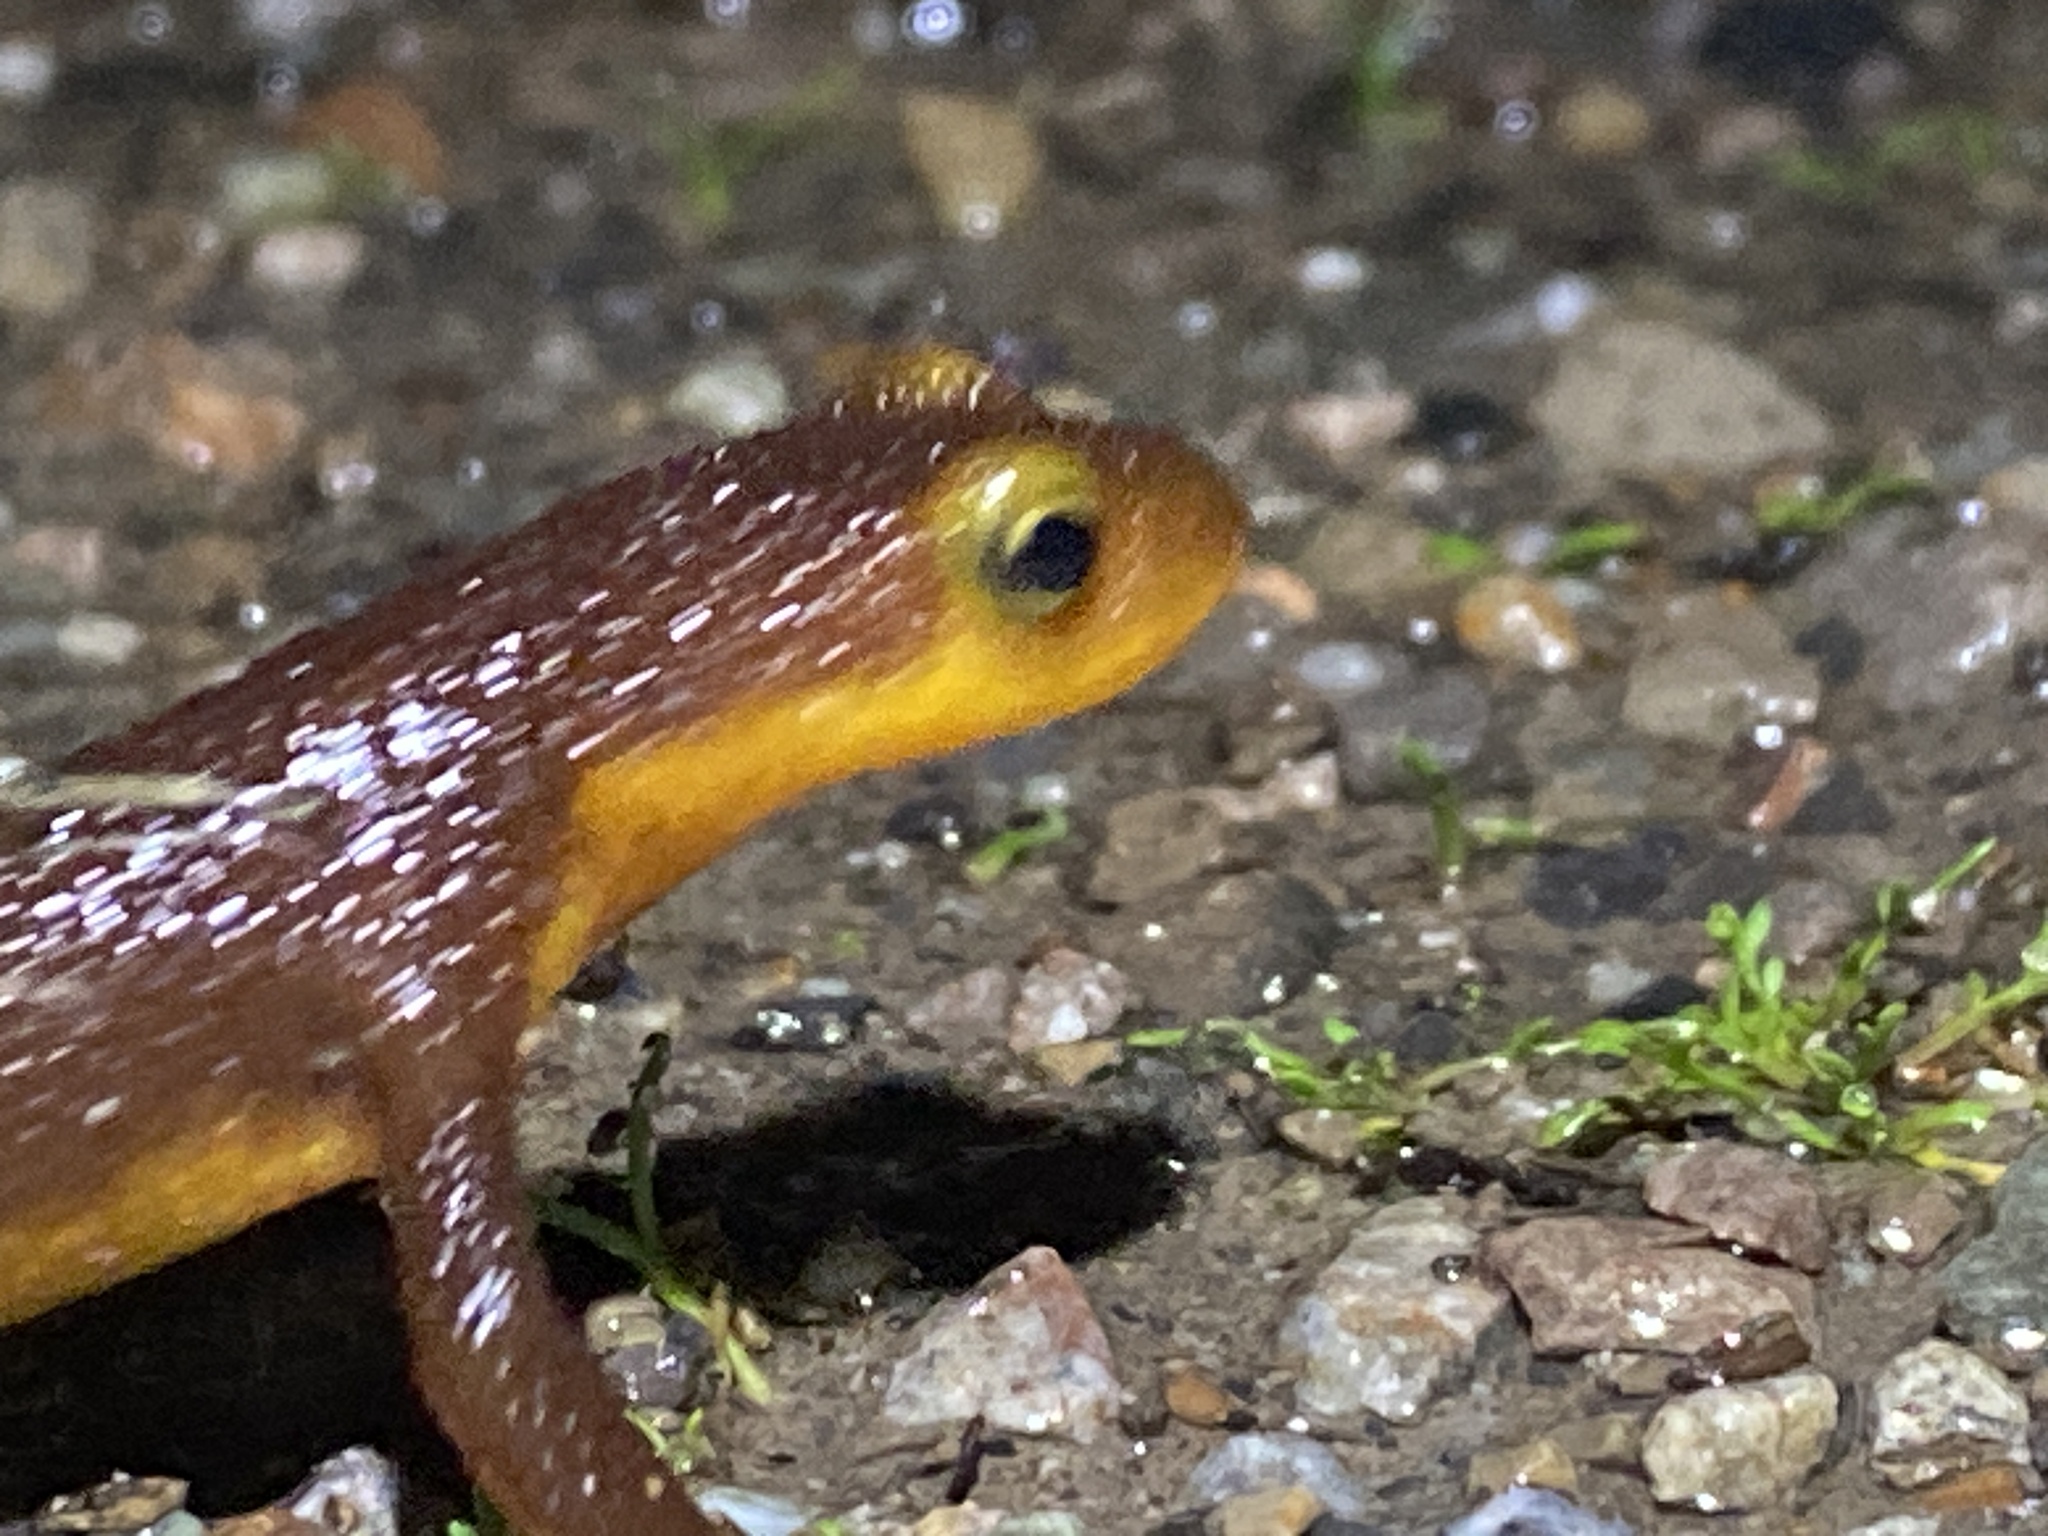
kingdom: Animalia
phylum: Chordata
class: Amphibia
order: Caudata
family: Salamandridae
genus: Taricha
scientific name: Taricha torosa
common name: California newt
